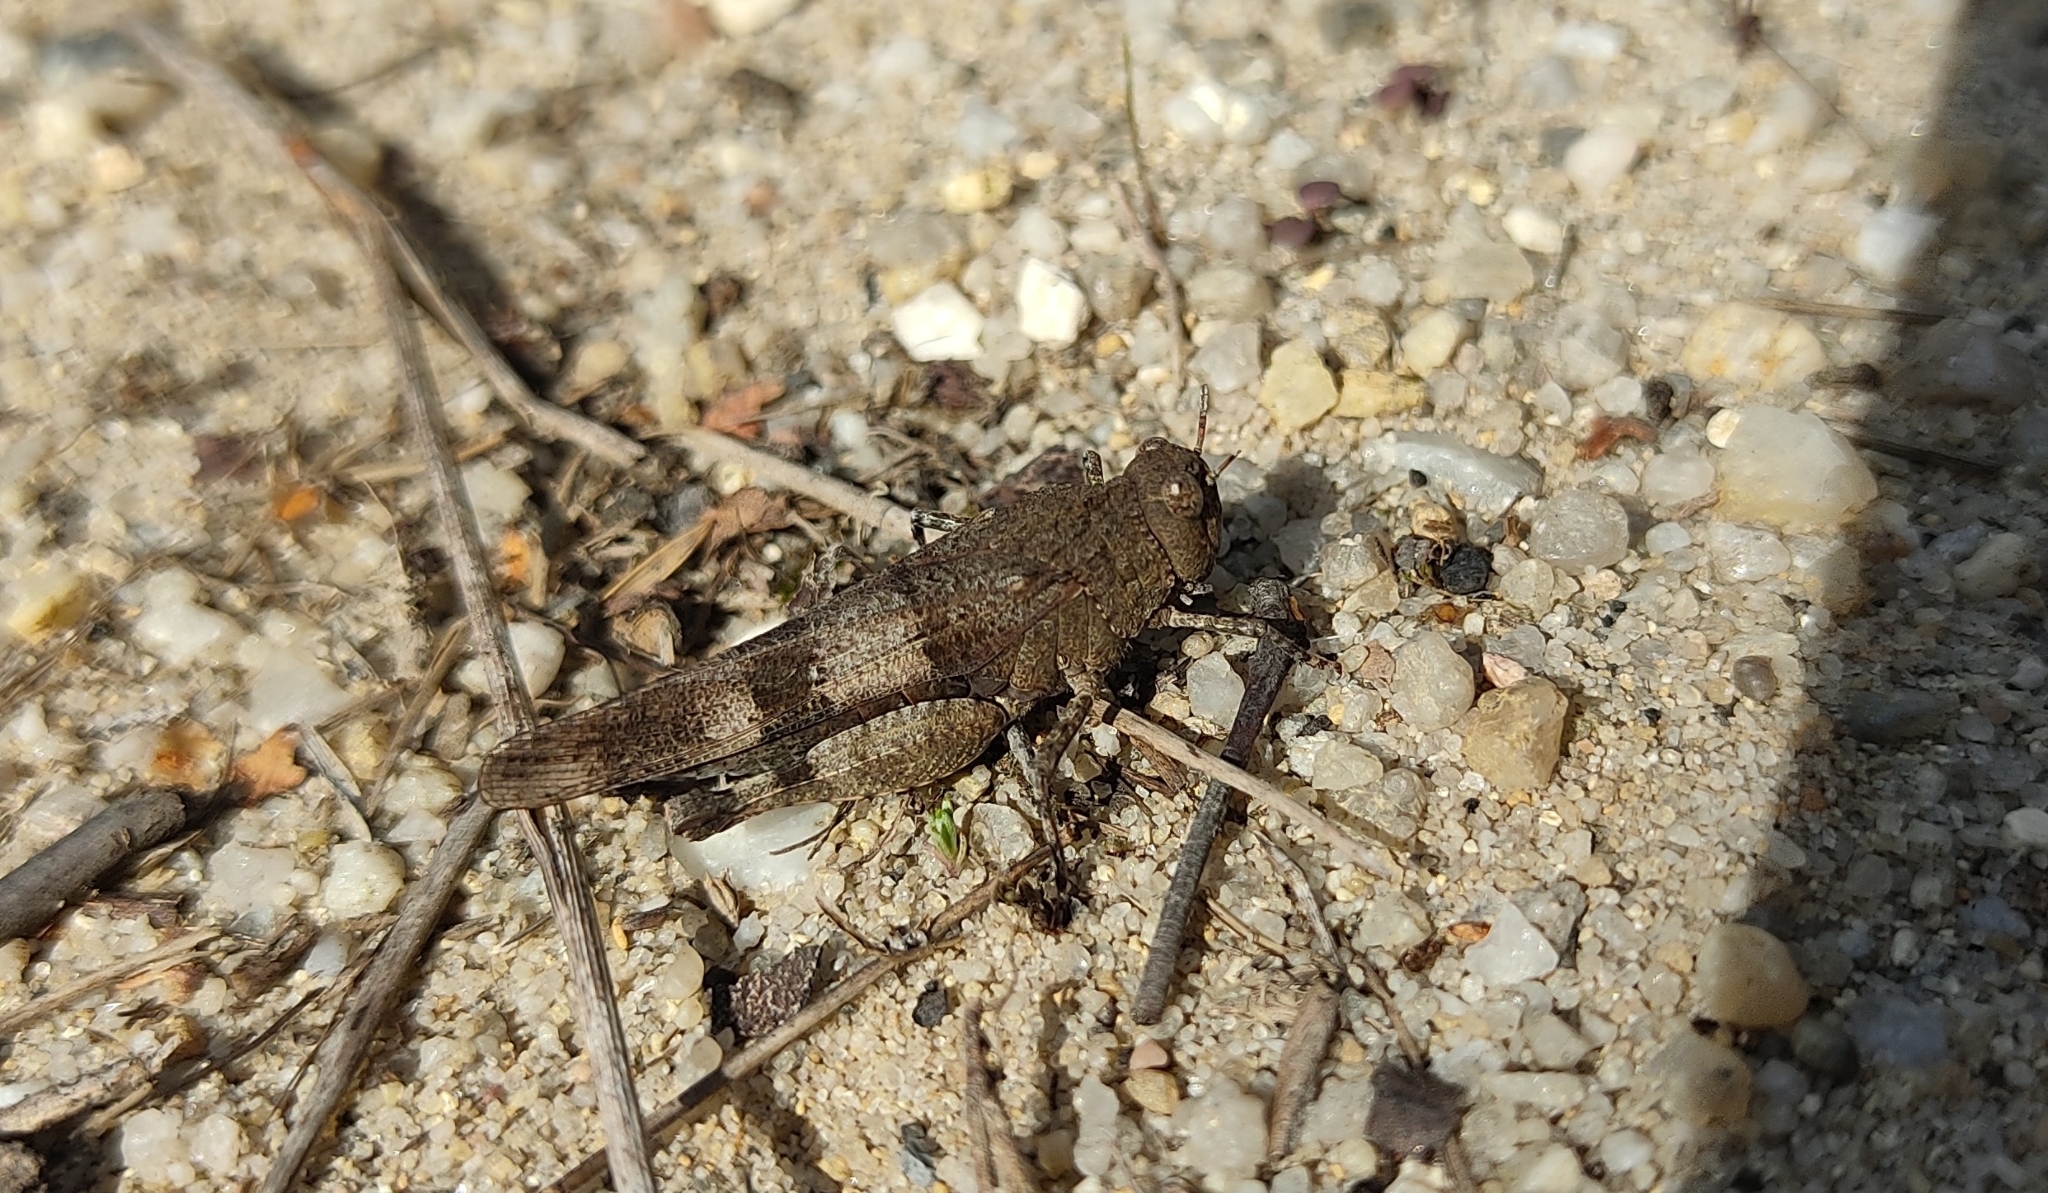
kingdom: Animalia
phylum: Arthropoda
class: Insecta
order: Orthoptera
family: Acrididae
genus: Oedipoda
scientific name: Oedipoda caerulescens
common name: Blue-winged grasshopper
